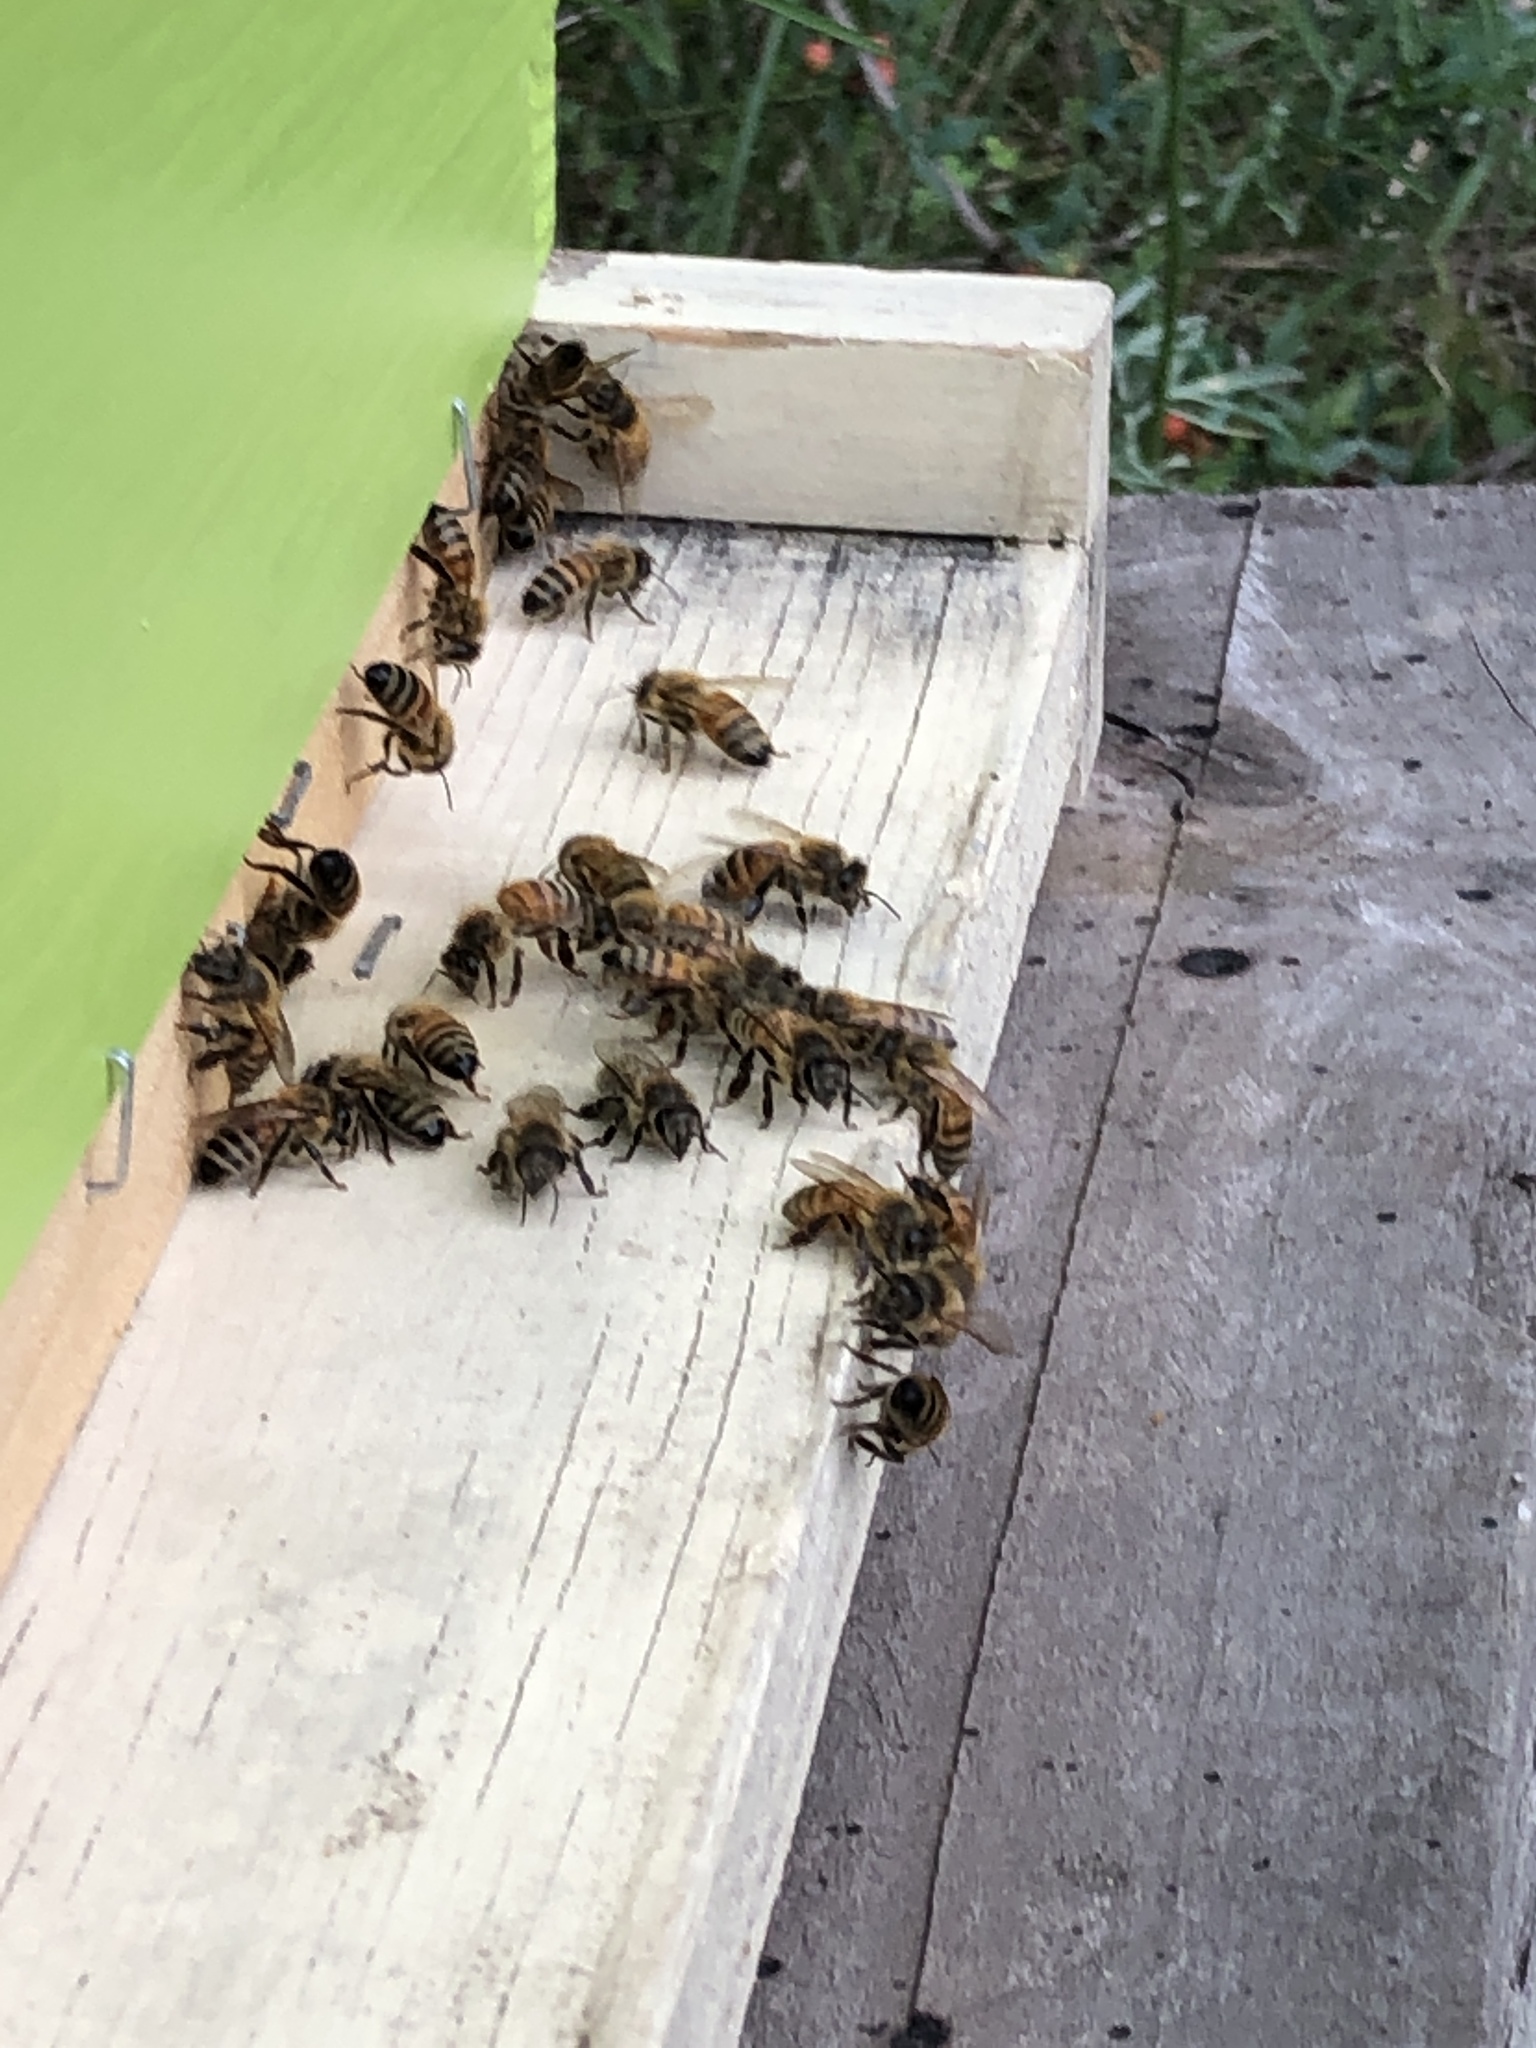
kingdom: Animalia
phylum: Arthropoda
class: Insecta
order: Hymenoptera
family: Apidae
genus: Apis
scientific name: Apis mellifera
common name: Honey bee
